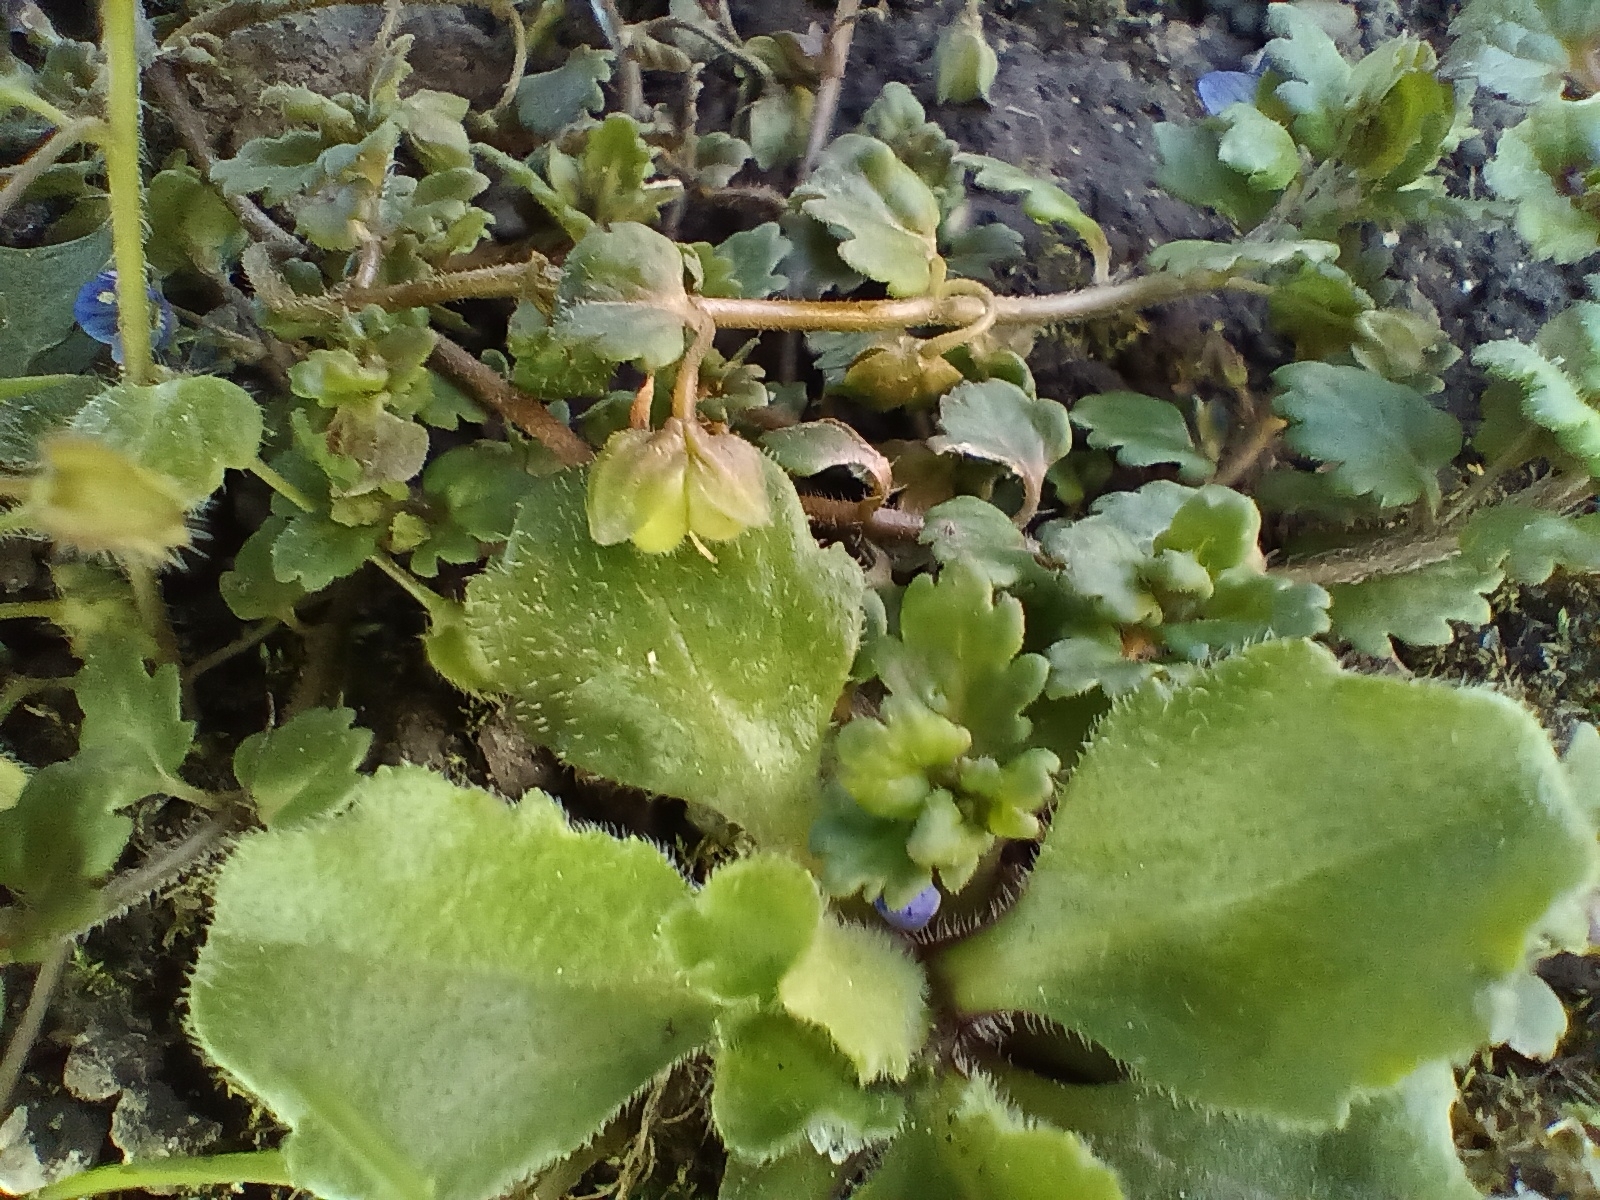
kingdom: Plantae
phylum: Tracheophyta
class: Magnoliopsida
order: Lamiales
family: Plantaginaceae
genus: Veronica
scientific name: Veronica polita
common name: Grey field-speedwell
